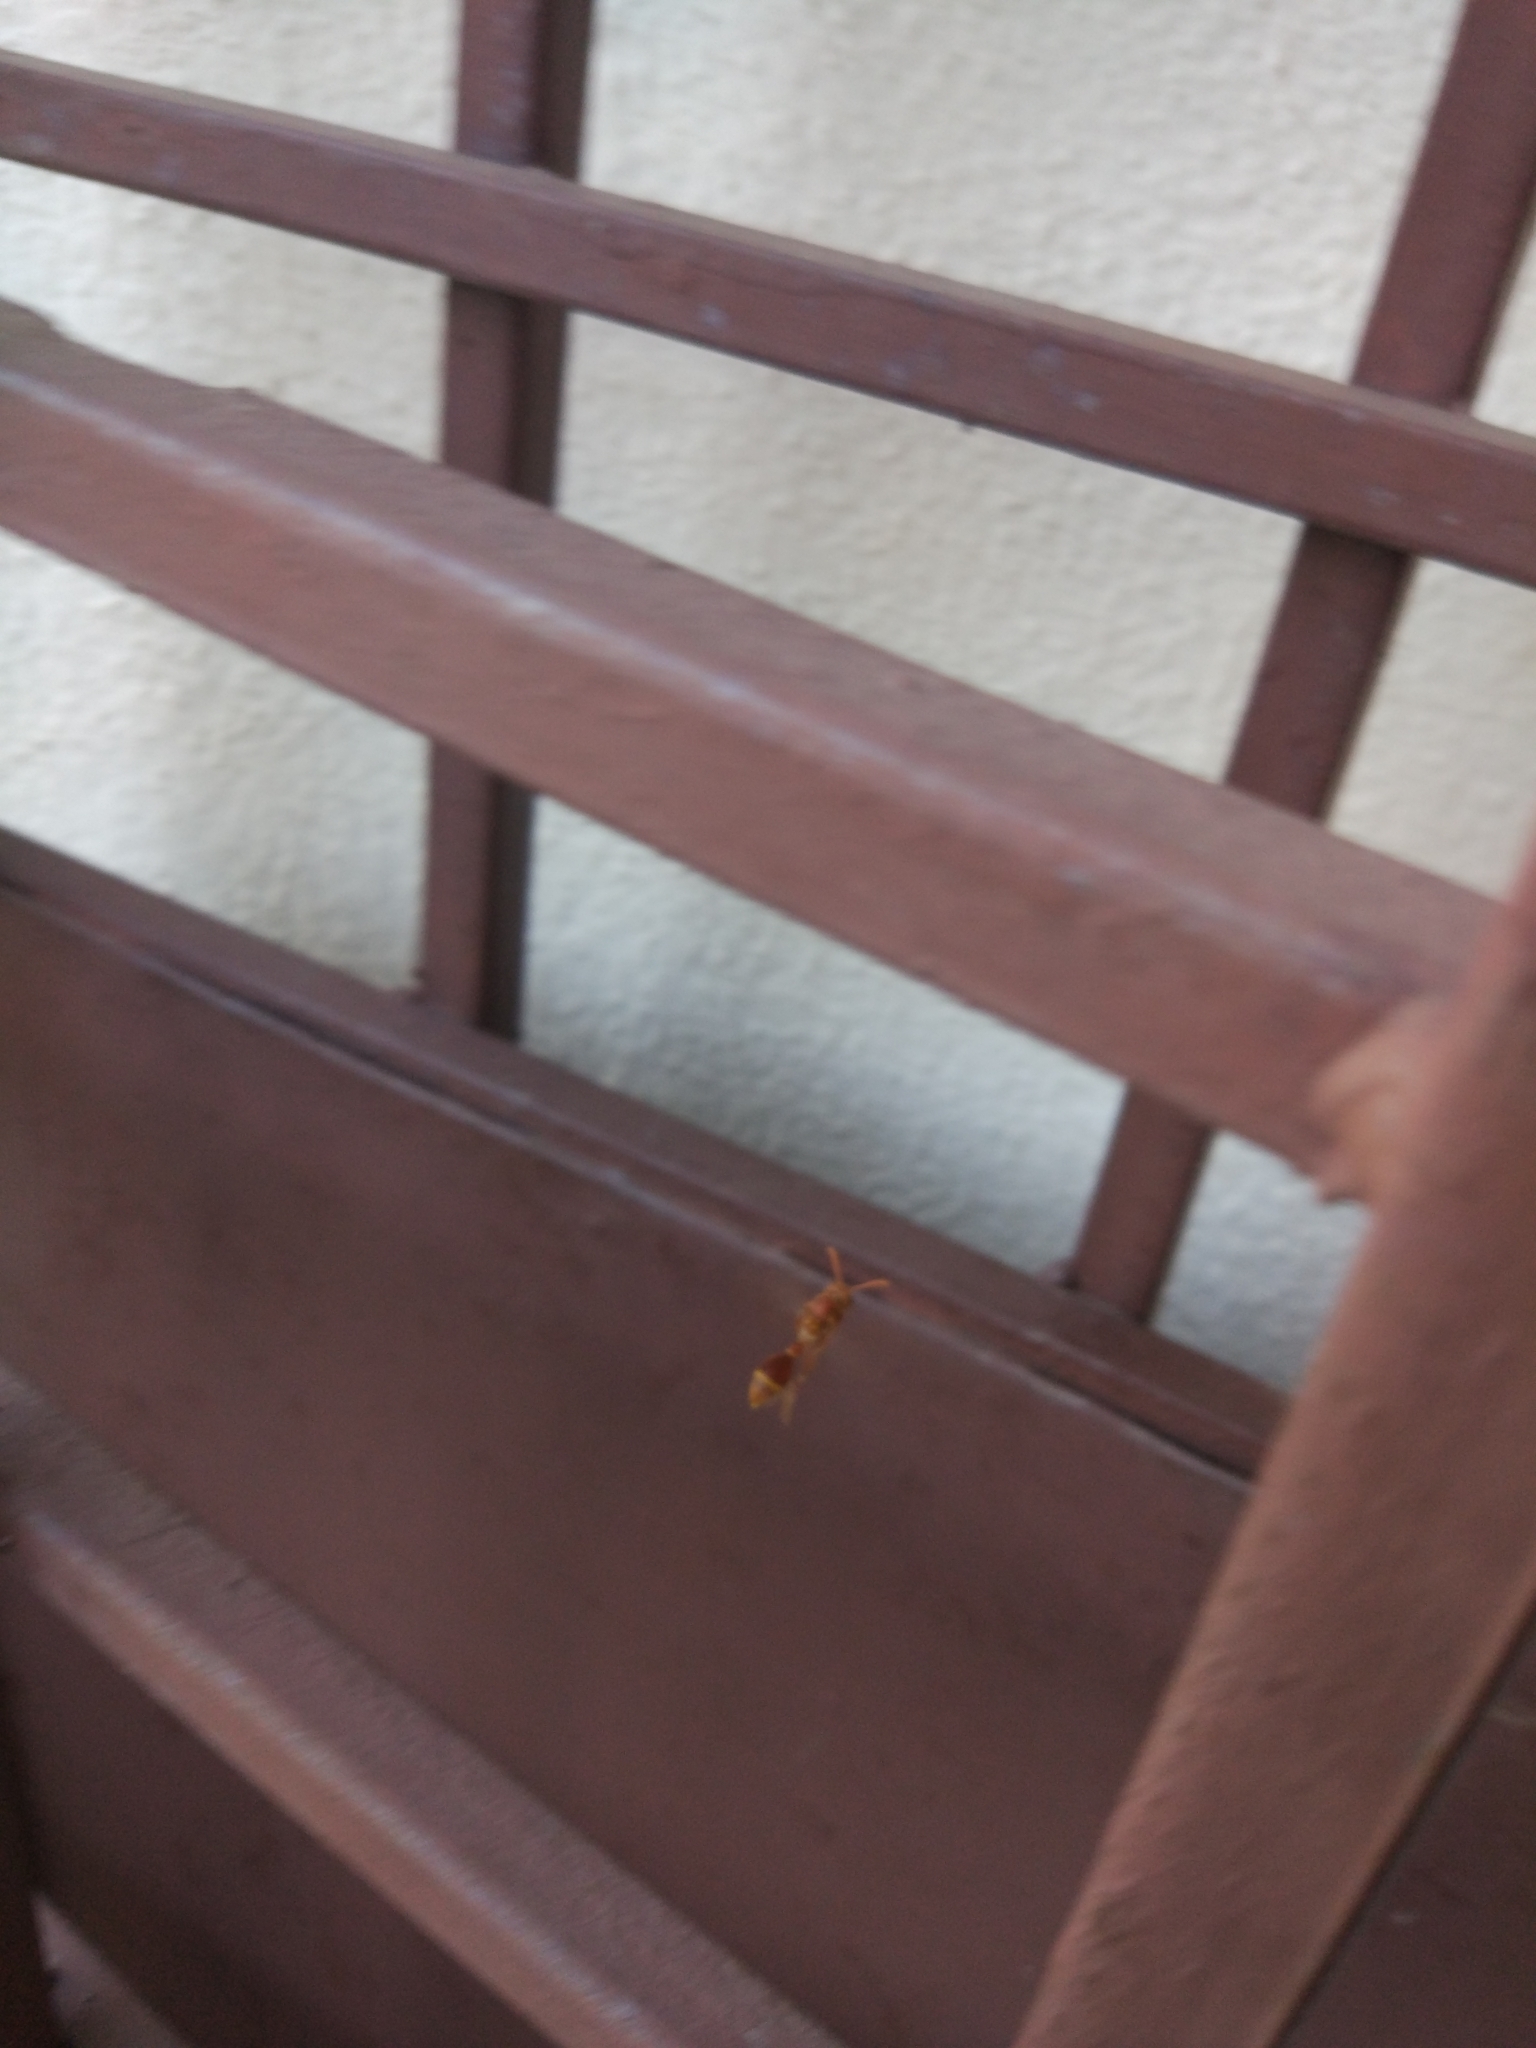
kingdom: Animalia
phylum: Arthropoda
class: Insecta
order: Hymenoptera
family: Vespidae
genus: Ropalidia
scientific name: Ropalidia marginata
